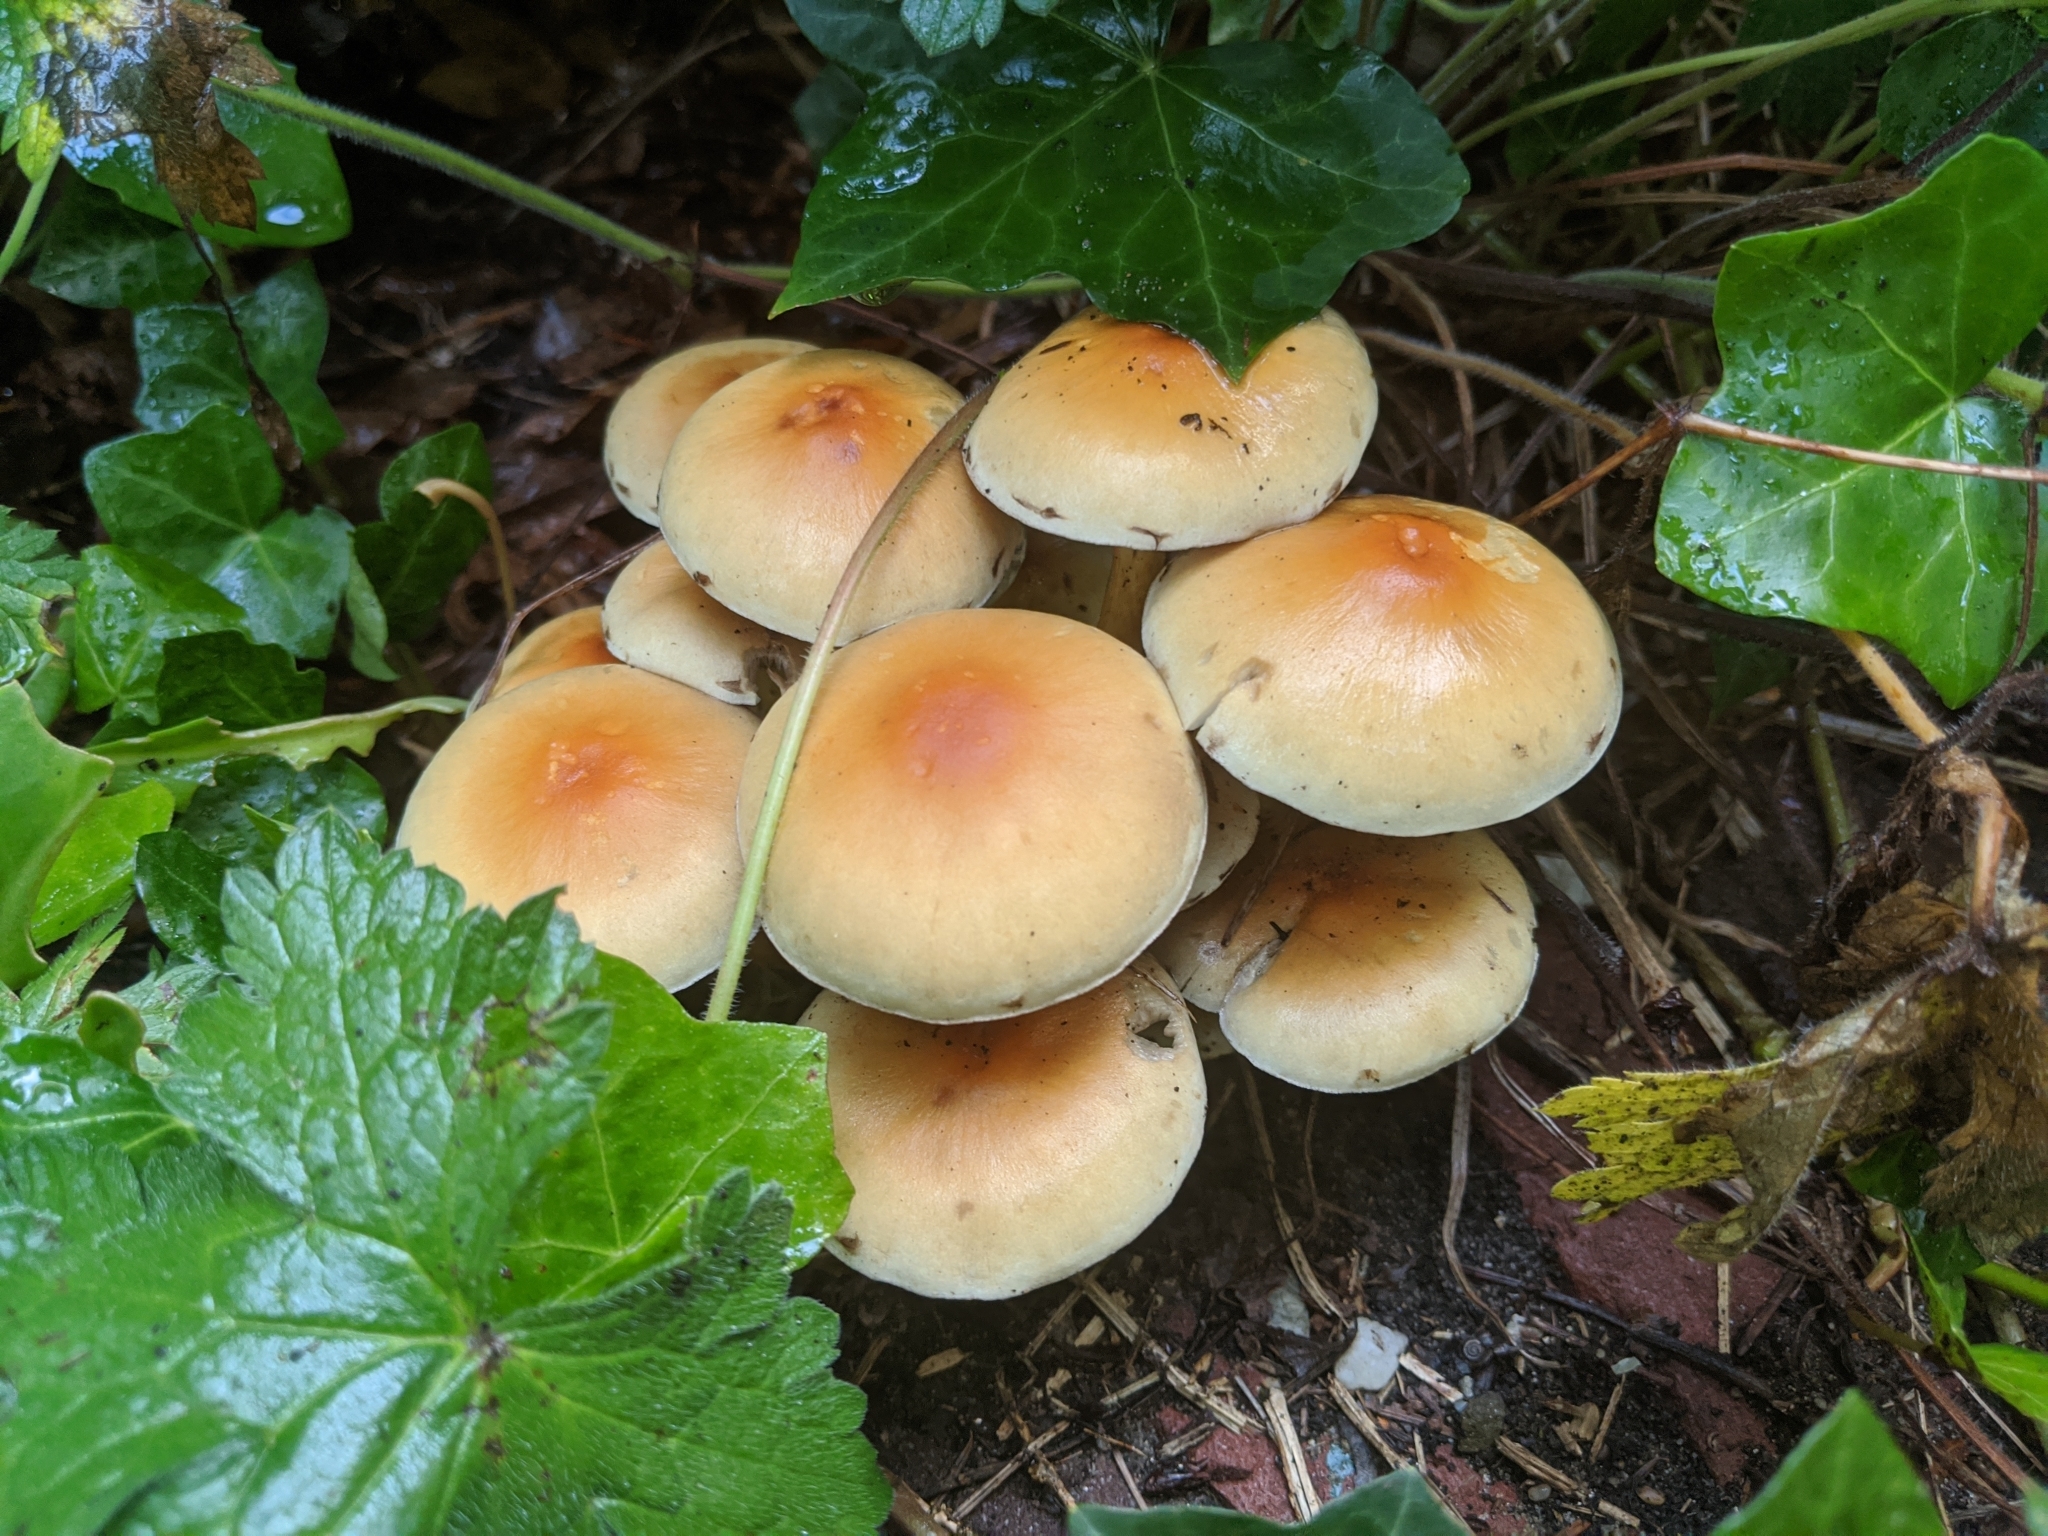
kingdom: Fungi
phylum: Basidiomycota
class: Agaricomycetes
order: Agaricales
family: Strophariaceae
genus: Hypholoma
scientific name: Hypholoma fasciculare
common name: Sulphur tuft
